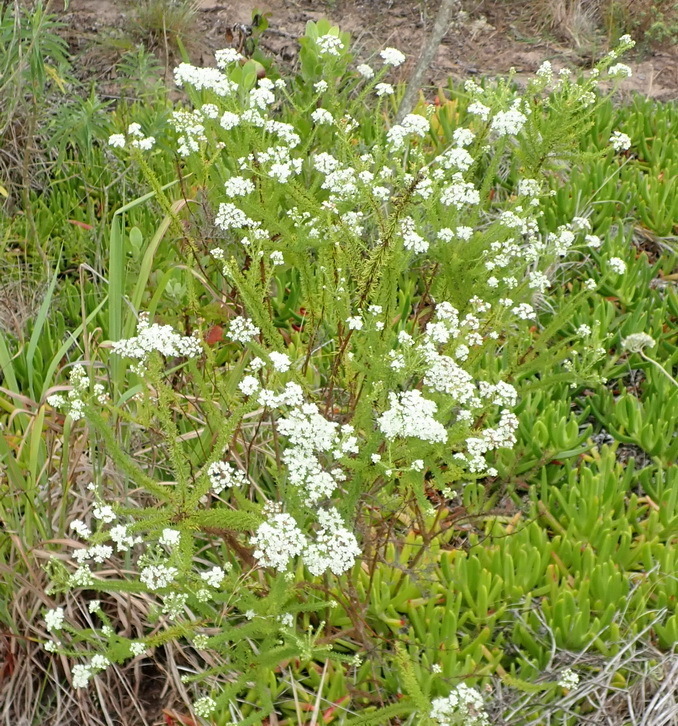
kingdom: Plantae
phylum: Tracheophyta
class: Magnoliopsida
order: Lamiales
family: Scrophulariaceae
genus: Selago
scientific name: Selago corymbosa
